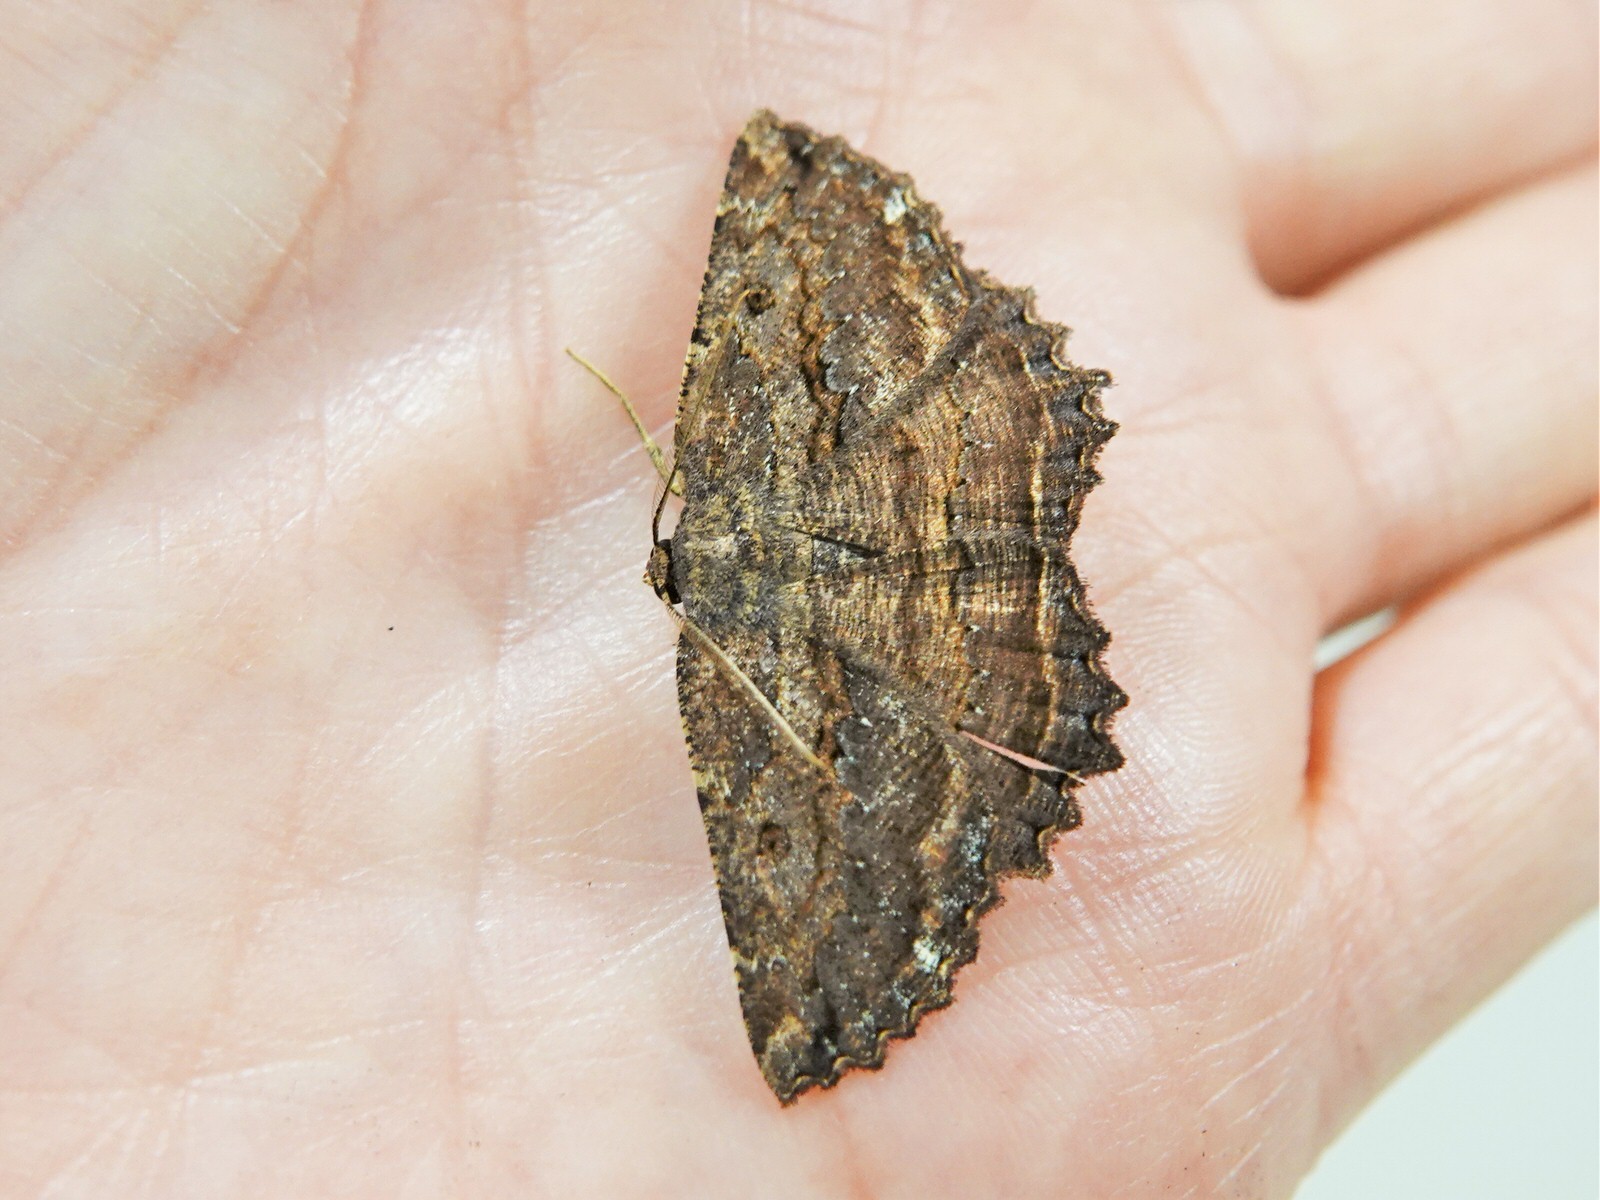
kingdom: Animalia
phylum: Arthropoda
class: Insecta
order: Lepidoptera
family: Geometridae
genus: Gellonia
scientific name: Gellonia pannularia
